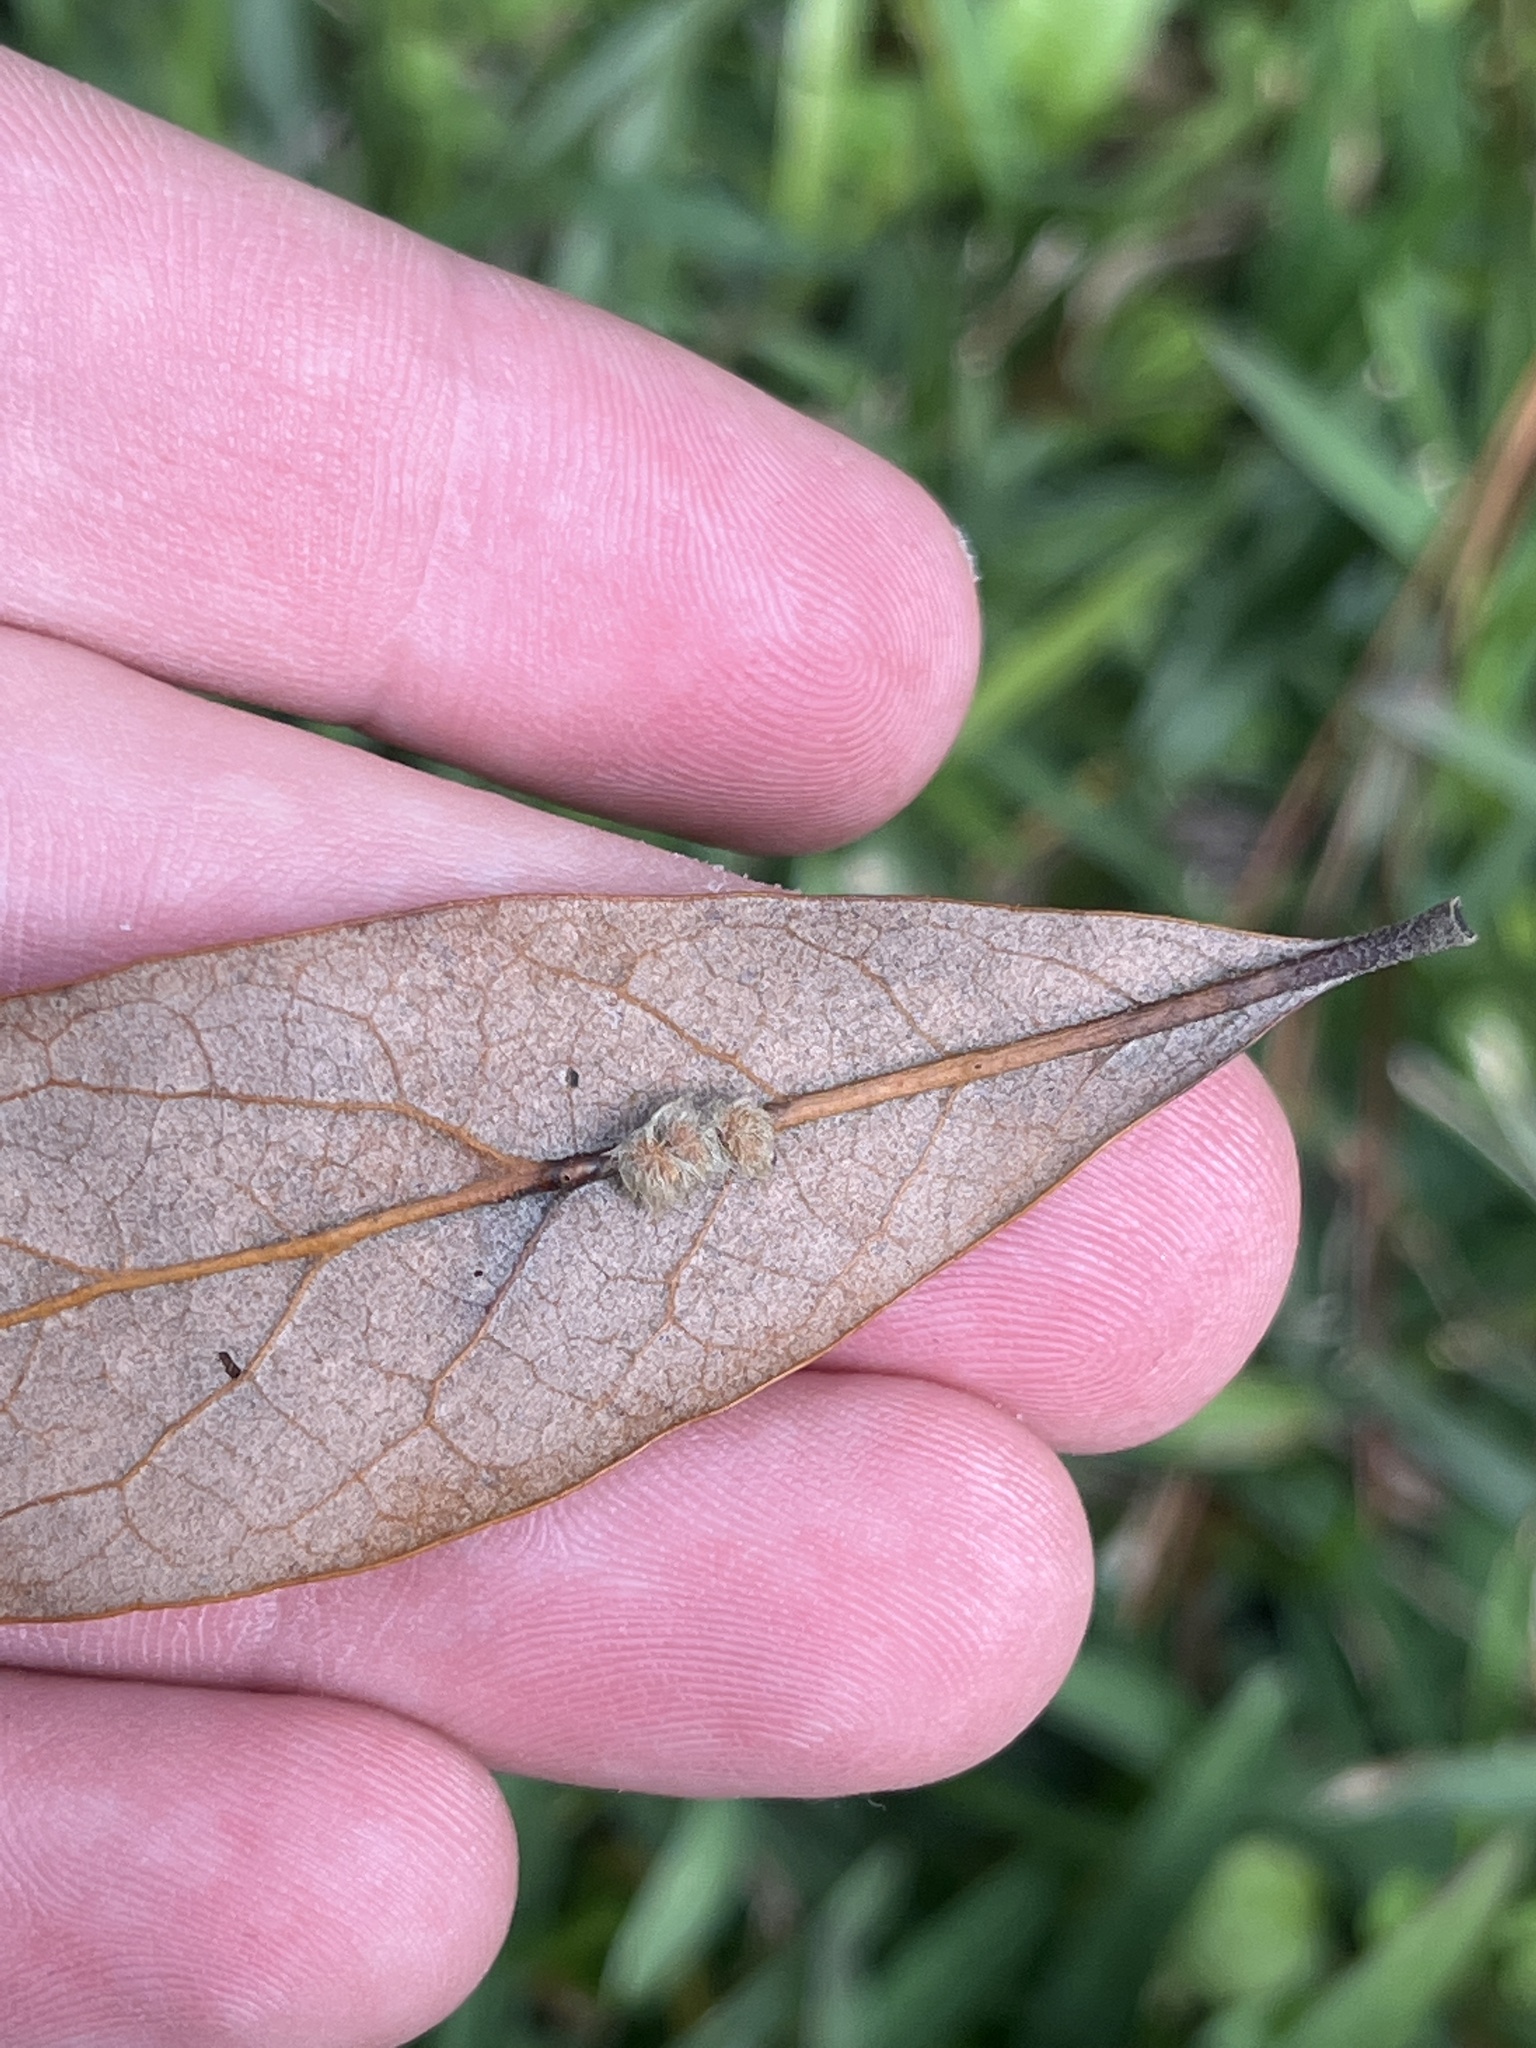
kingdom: Animalia
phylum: Arthropoda
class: Insecta
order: Hymenoptera
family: Cynipidae
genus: Andricus
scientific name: Andricus Druon quercuslanigerum
